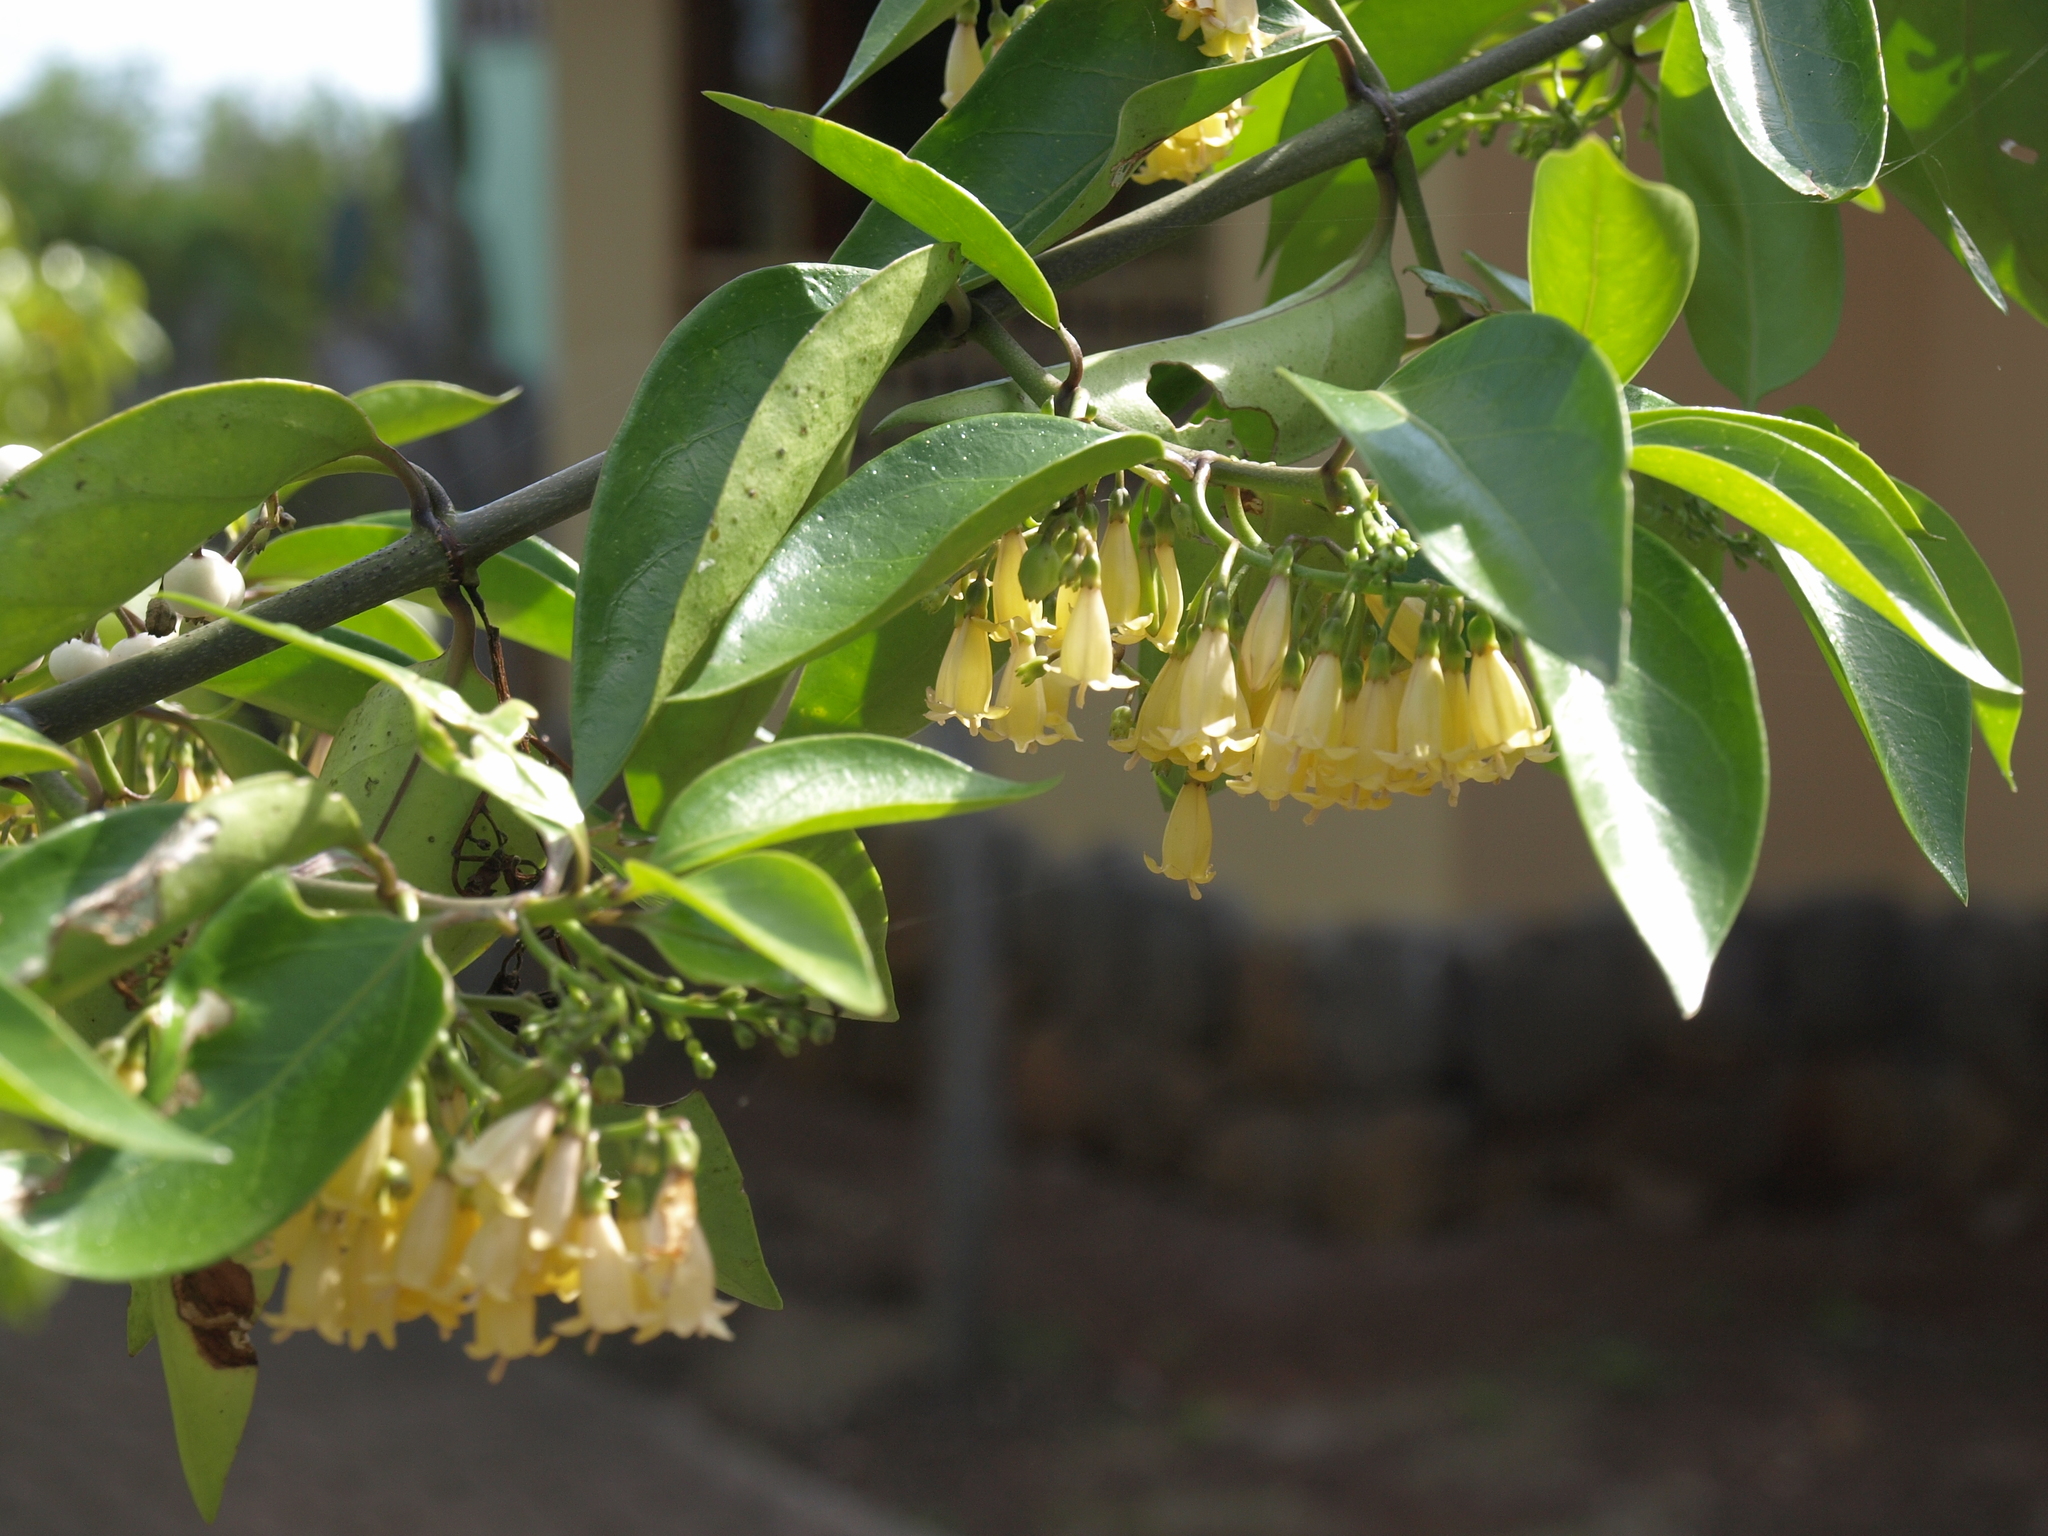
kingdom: Plantae
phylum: Tracheophyta
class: Magnoliopsida
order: Gentianales
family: Rubiaceae
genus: Chiococca
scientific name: Chiococca alba
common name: Snowberry
